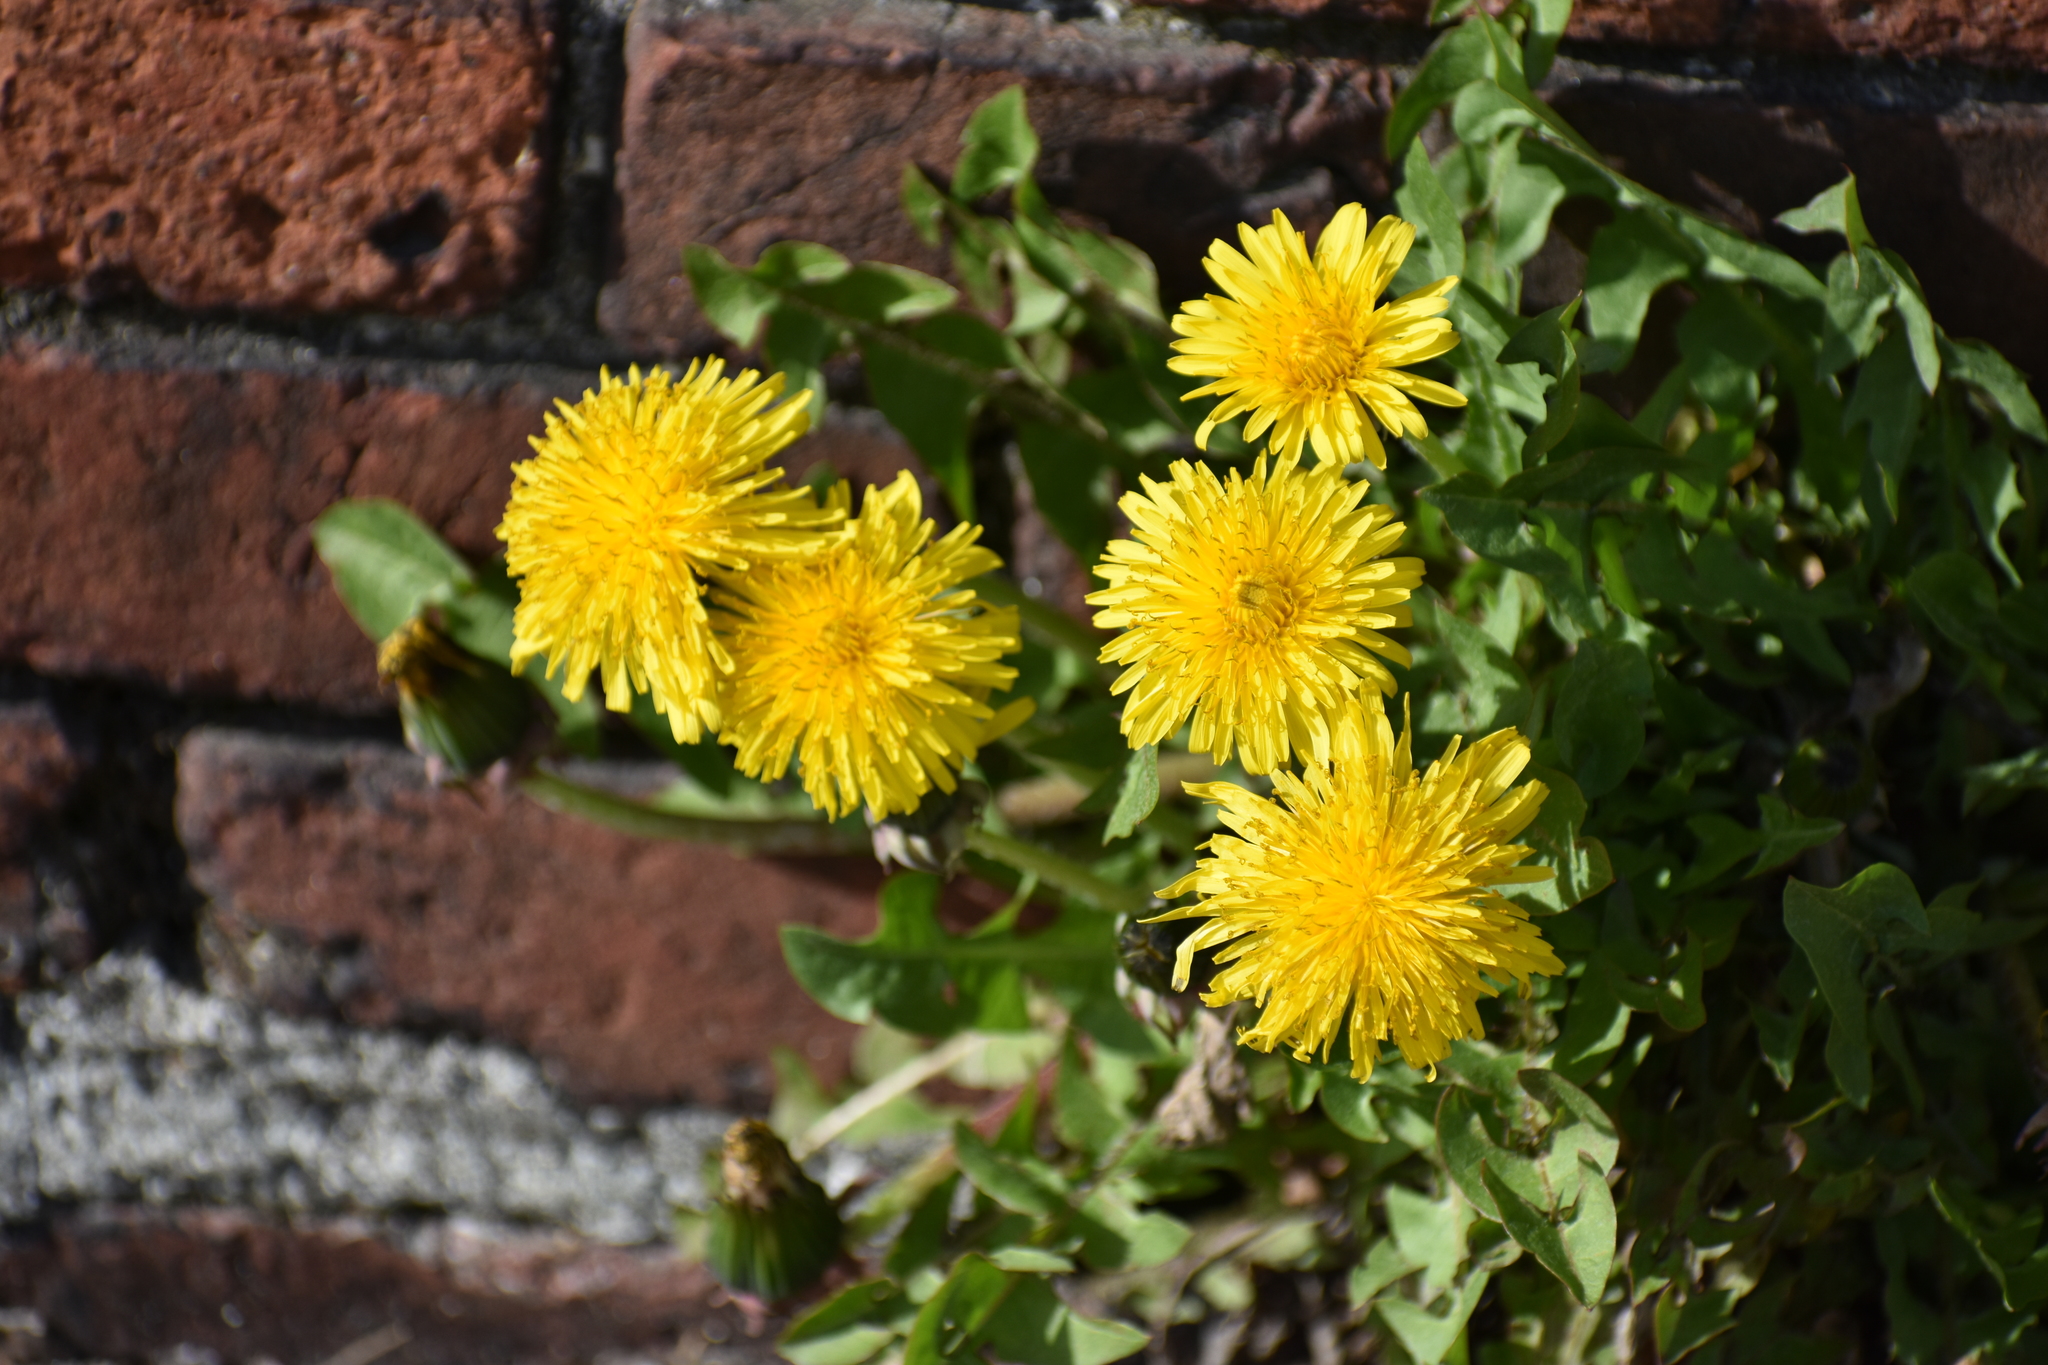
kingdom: Plantae
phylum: Tracheophyta
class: Magnoliopsida
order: Asterales
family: Asteraceae
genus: Taraxacum
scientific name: Taraxacum officinale
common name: Common dandelion
